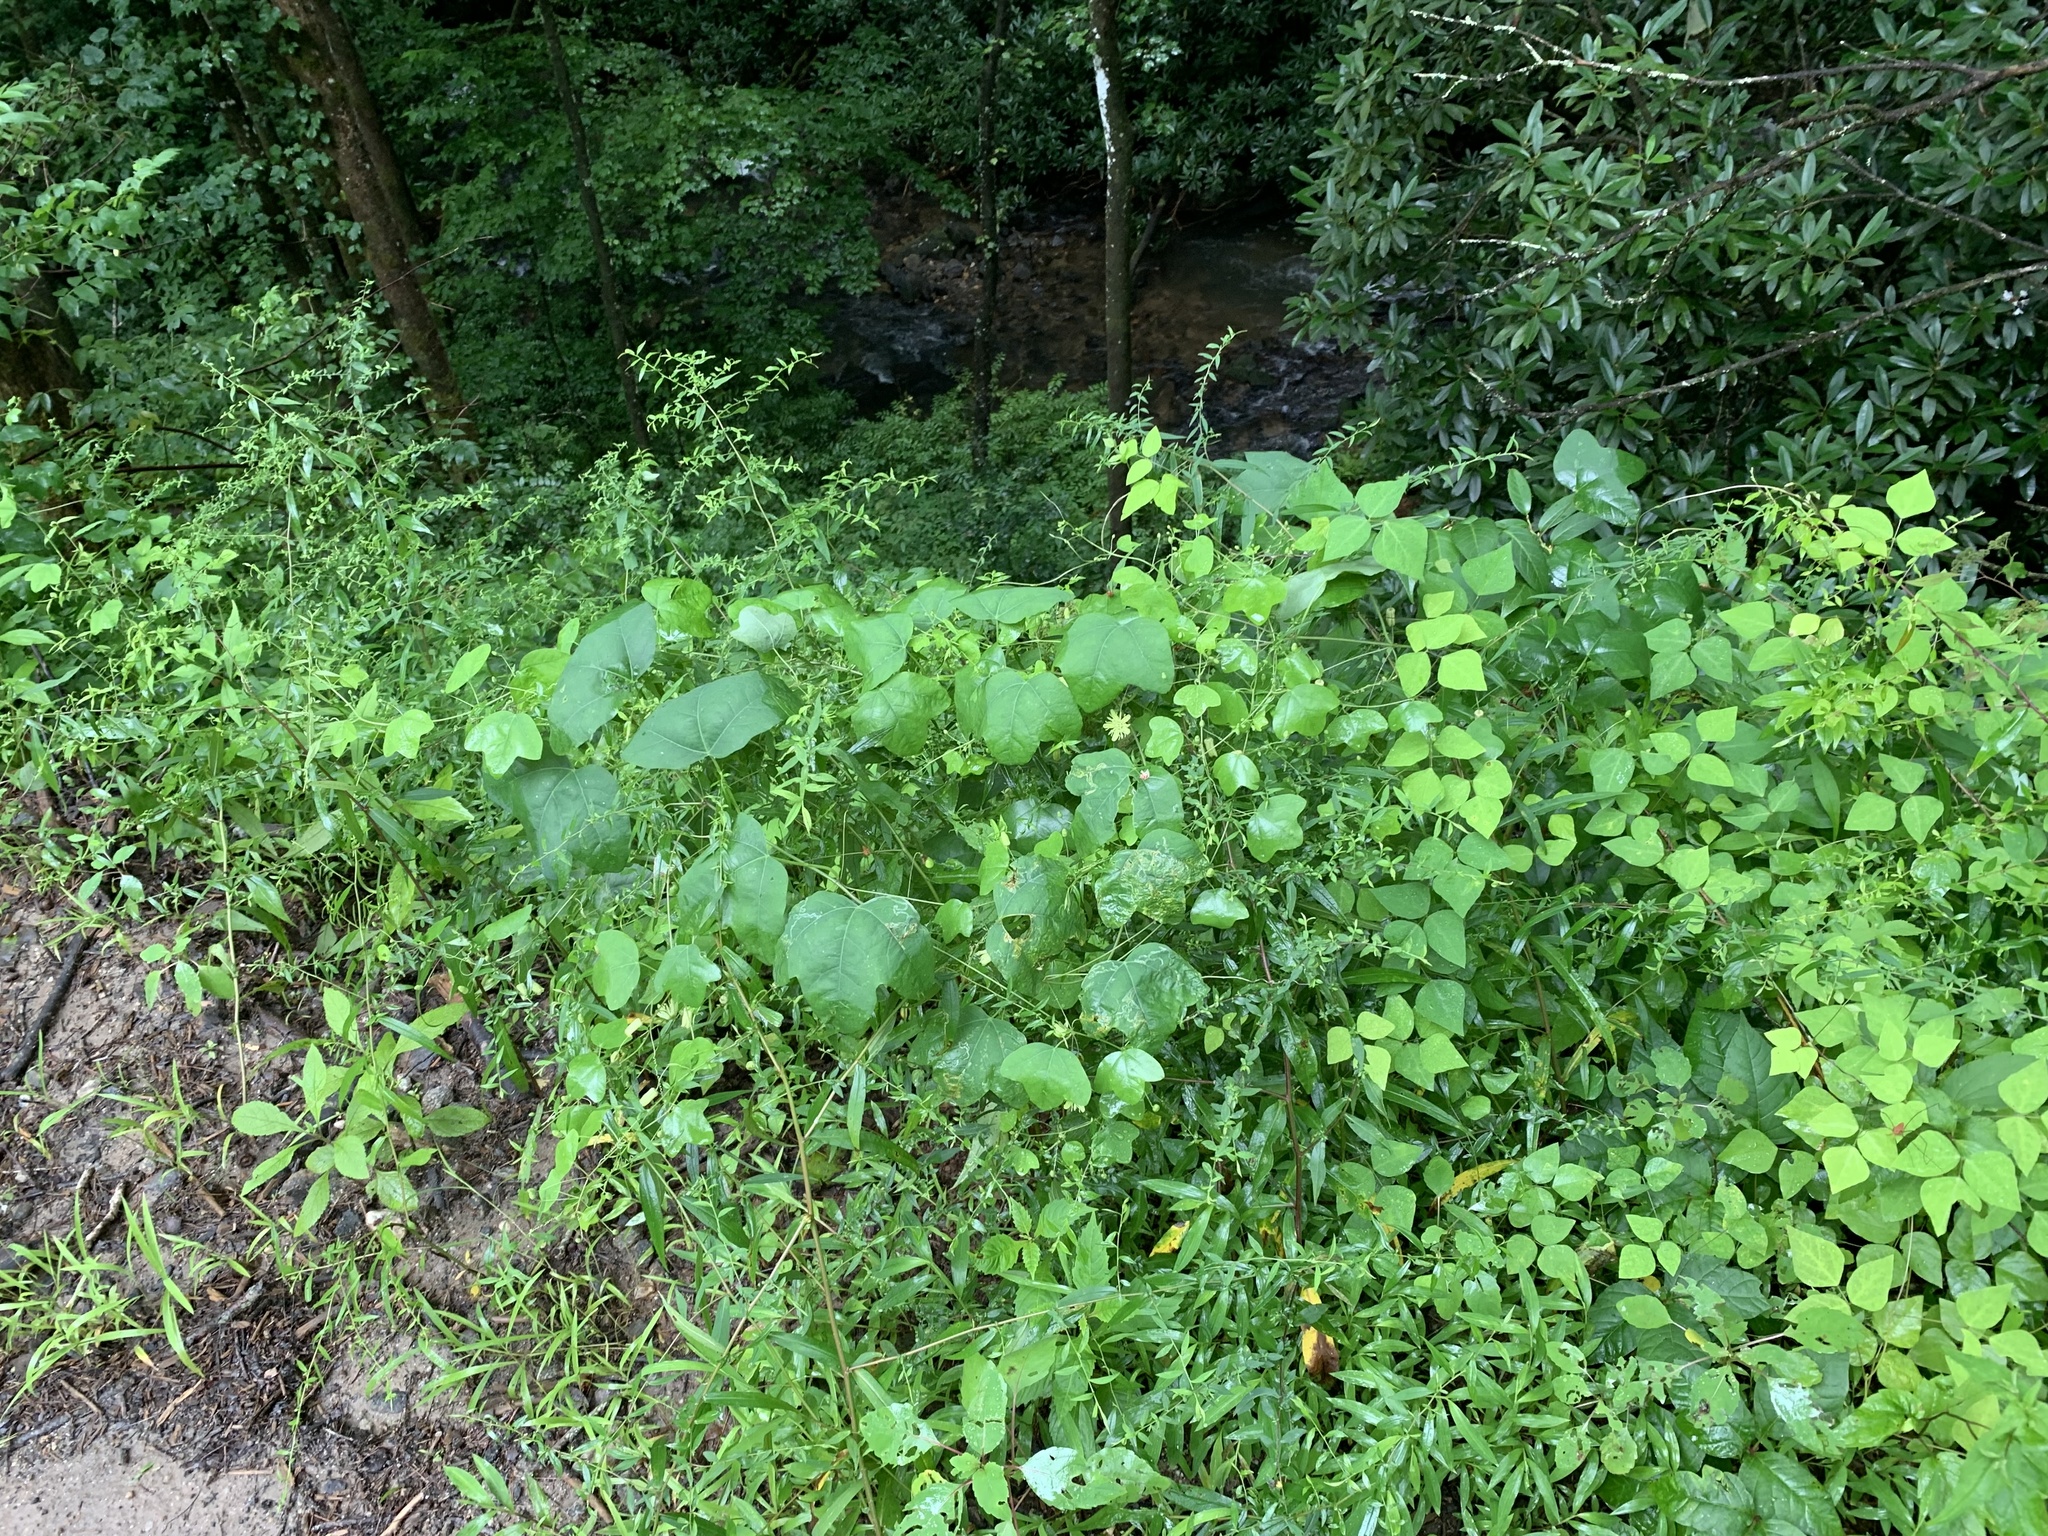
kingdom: Plantae
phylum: Tracheophyta
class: Magnoliopsida
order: Malpighiales
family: Passifloraceae
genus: Passiflora
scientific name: Passiflora lutea
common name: Yellow passionflower
